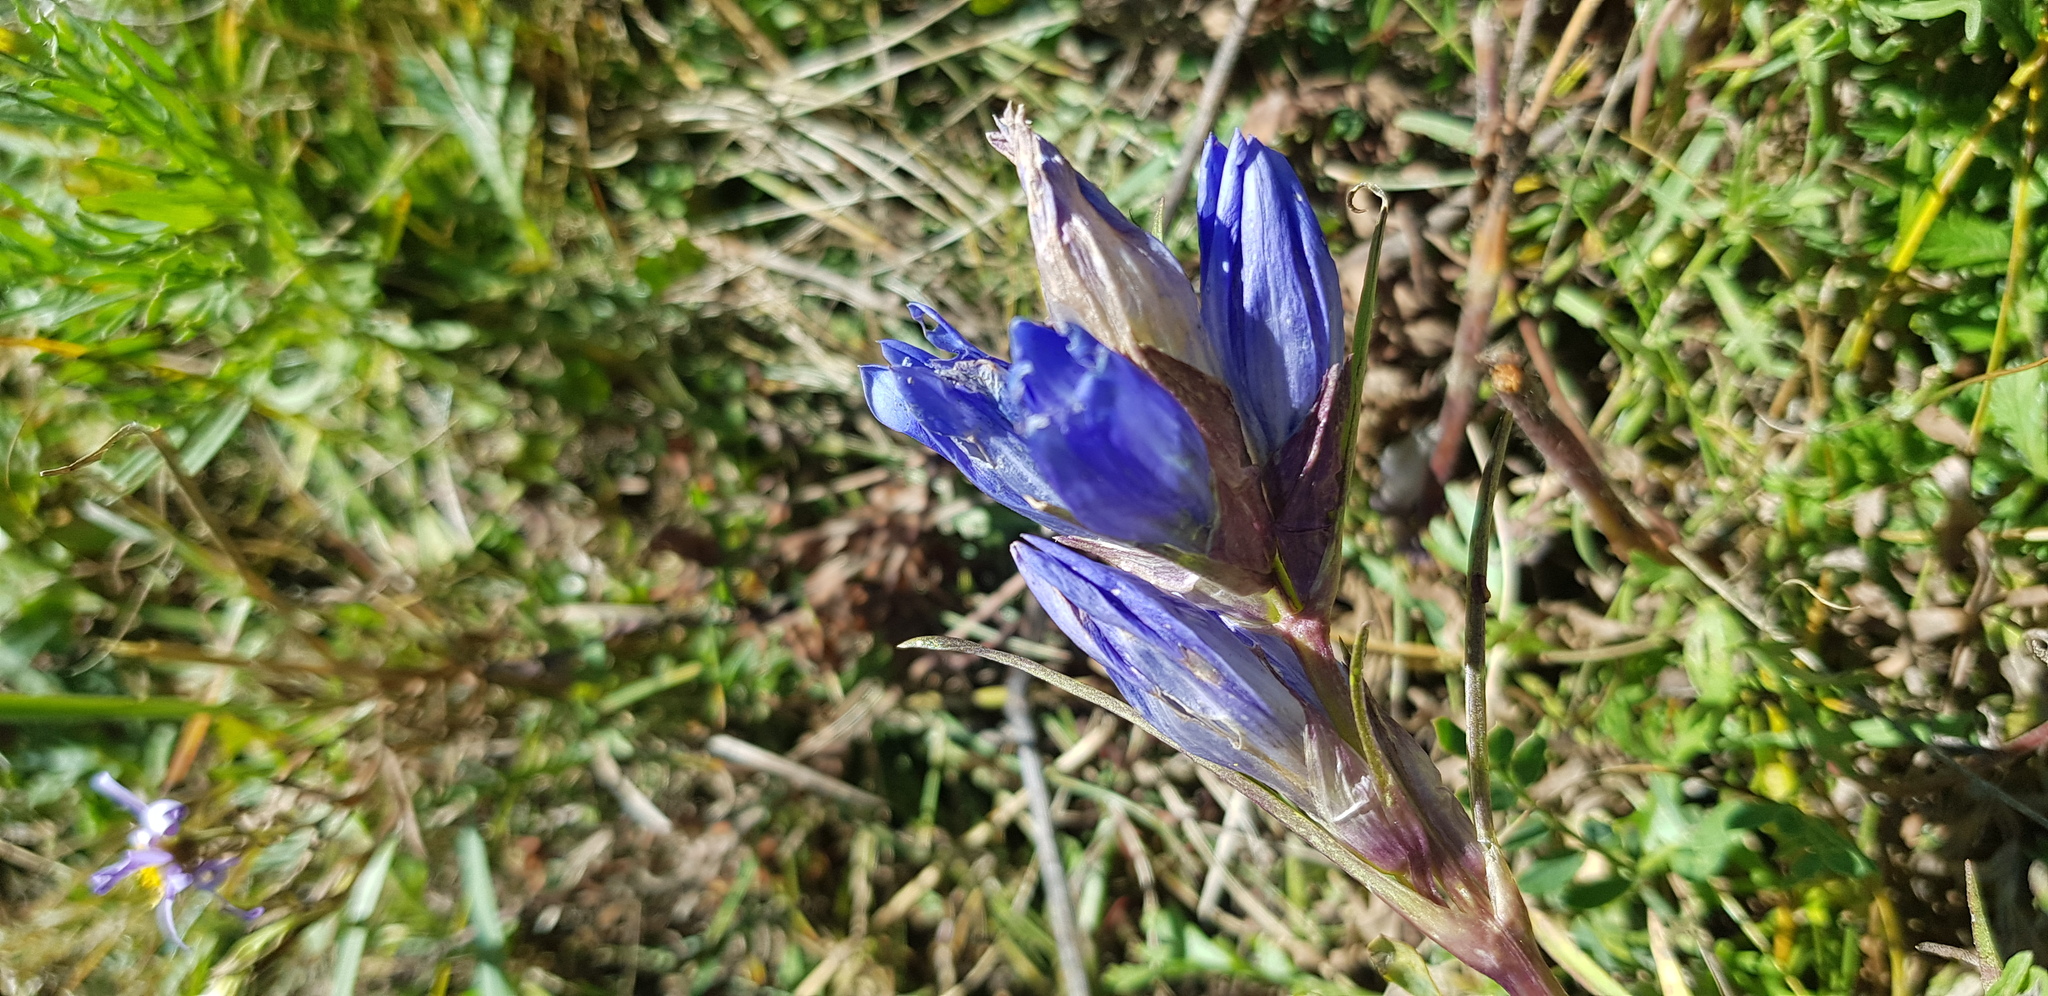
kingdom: Plantae
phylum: Tracheophyta
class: Magnoliopsida
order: Gentianales
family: Gentianaceae
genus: Gentiana
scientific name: Gentiana decumbens
